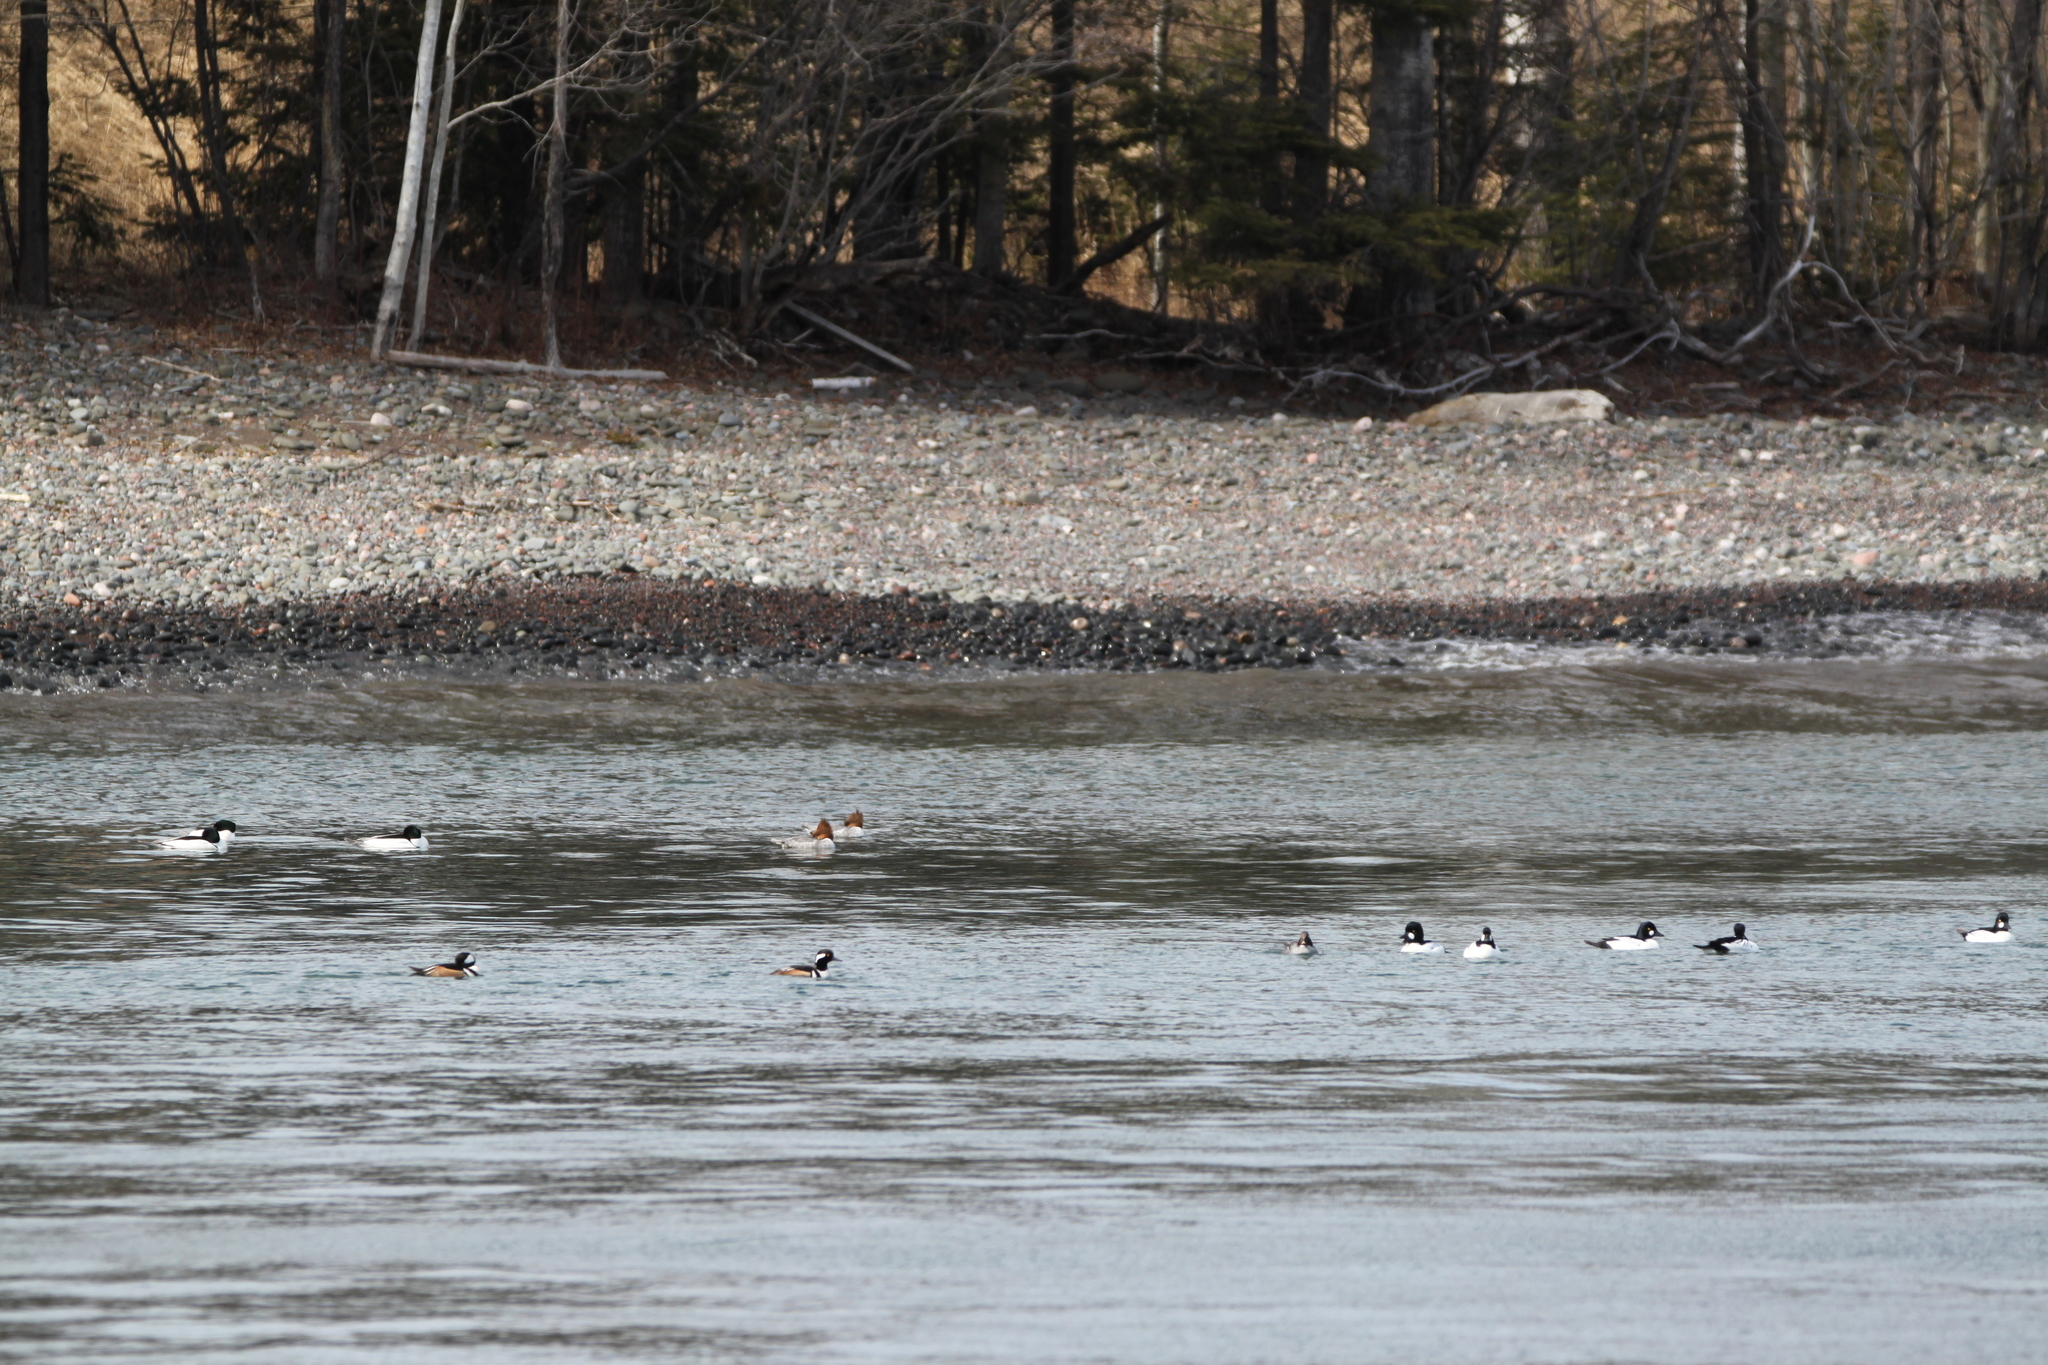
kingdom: Animalia
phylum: Chordata
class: Aves
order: Anseriformes
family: Anatidae
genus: Mergus
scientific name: Mergus merganser
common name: Common merganser
